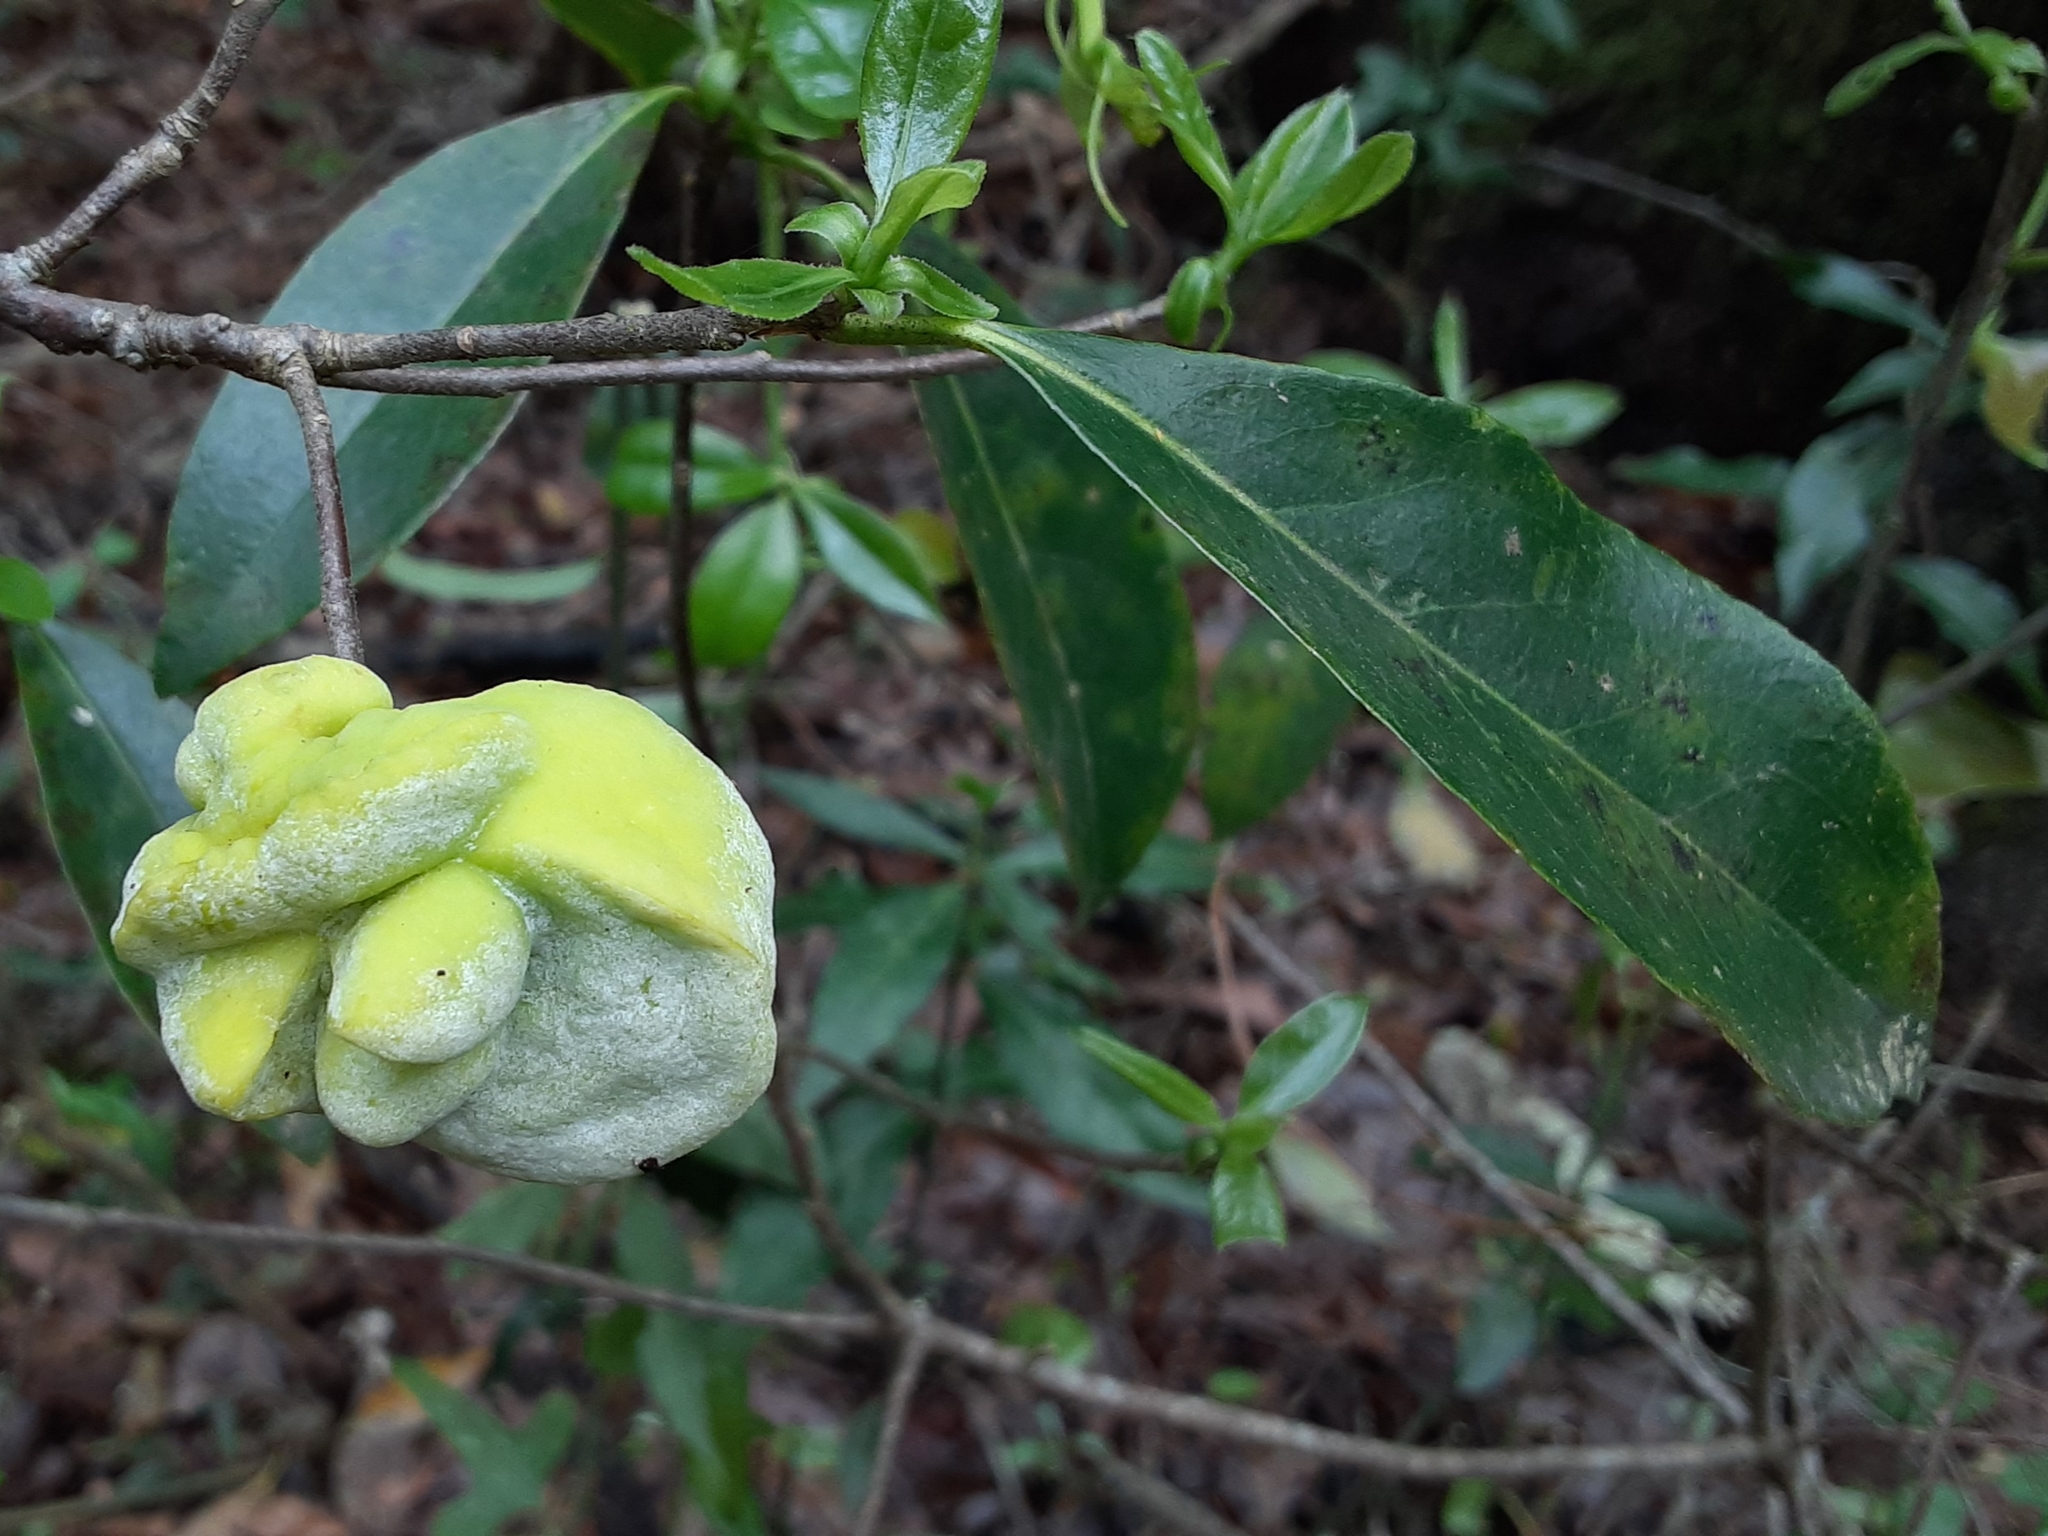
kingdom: Fungi
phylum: Basidiomycota
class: Exobasidiomycetes
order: Exobasidiales
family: Exobasidiaceae
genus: Exobasidium
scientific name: Exobasidium symploci
